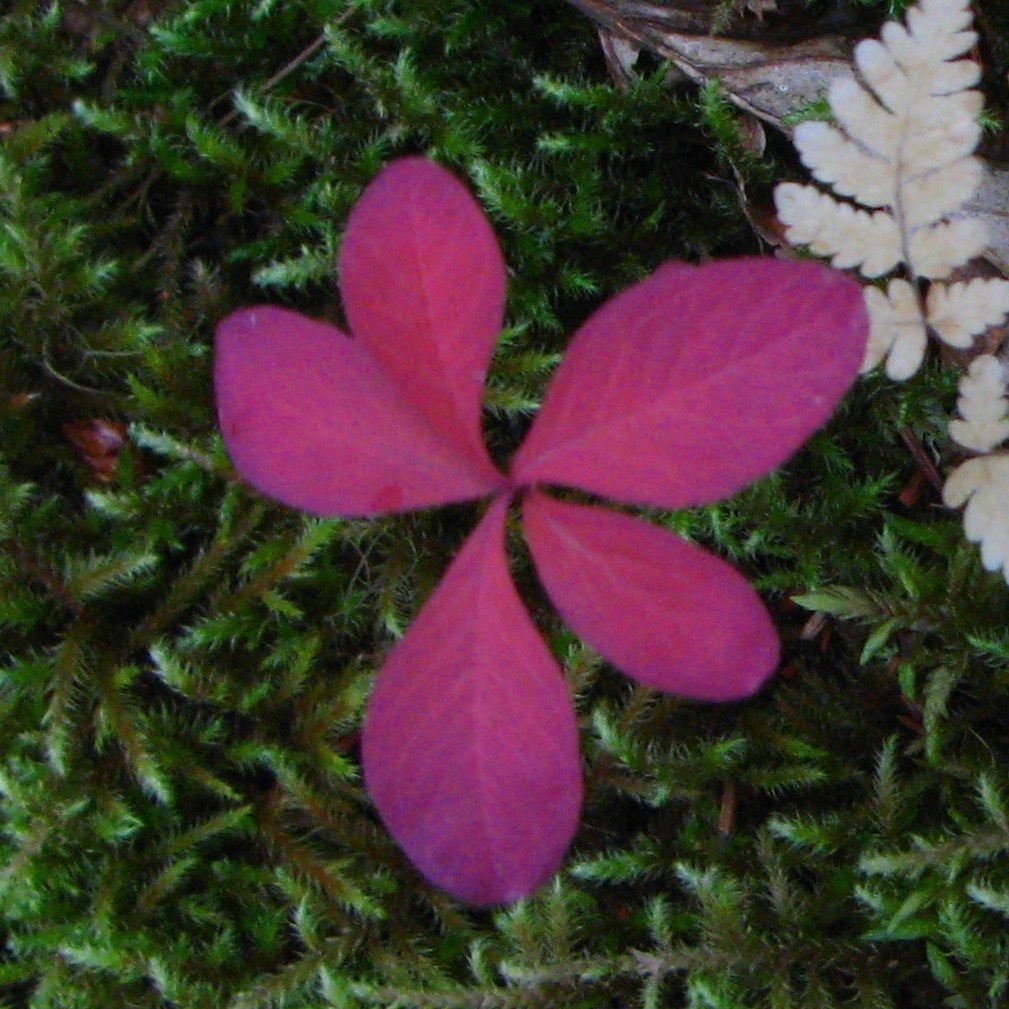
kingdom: Plantae
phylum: Tracheophyta
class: Magnoliopsida
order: Ericales
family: Primulaceae
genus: Lysimachia
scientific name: Lysimachia europaea
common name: Arctic starflower
